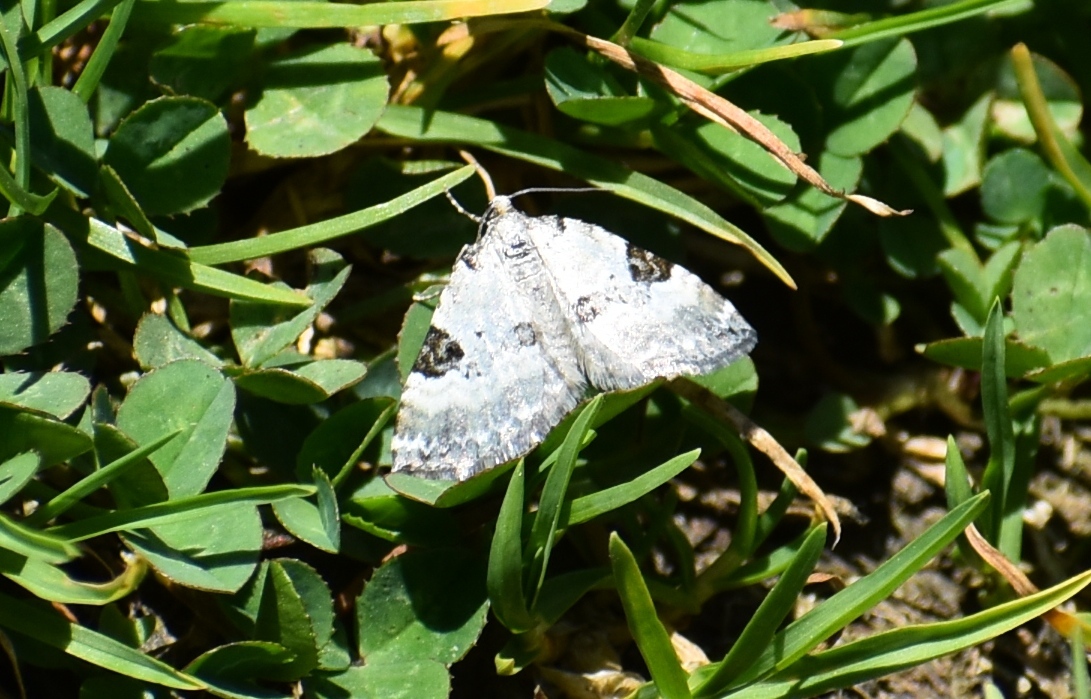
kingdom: Animalia
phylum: Arthropoda
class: Insecta
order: Lepidoptera
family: Geometridae
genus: Perizoma
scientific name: Perizoma blandiata
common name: Pretty pinion
